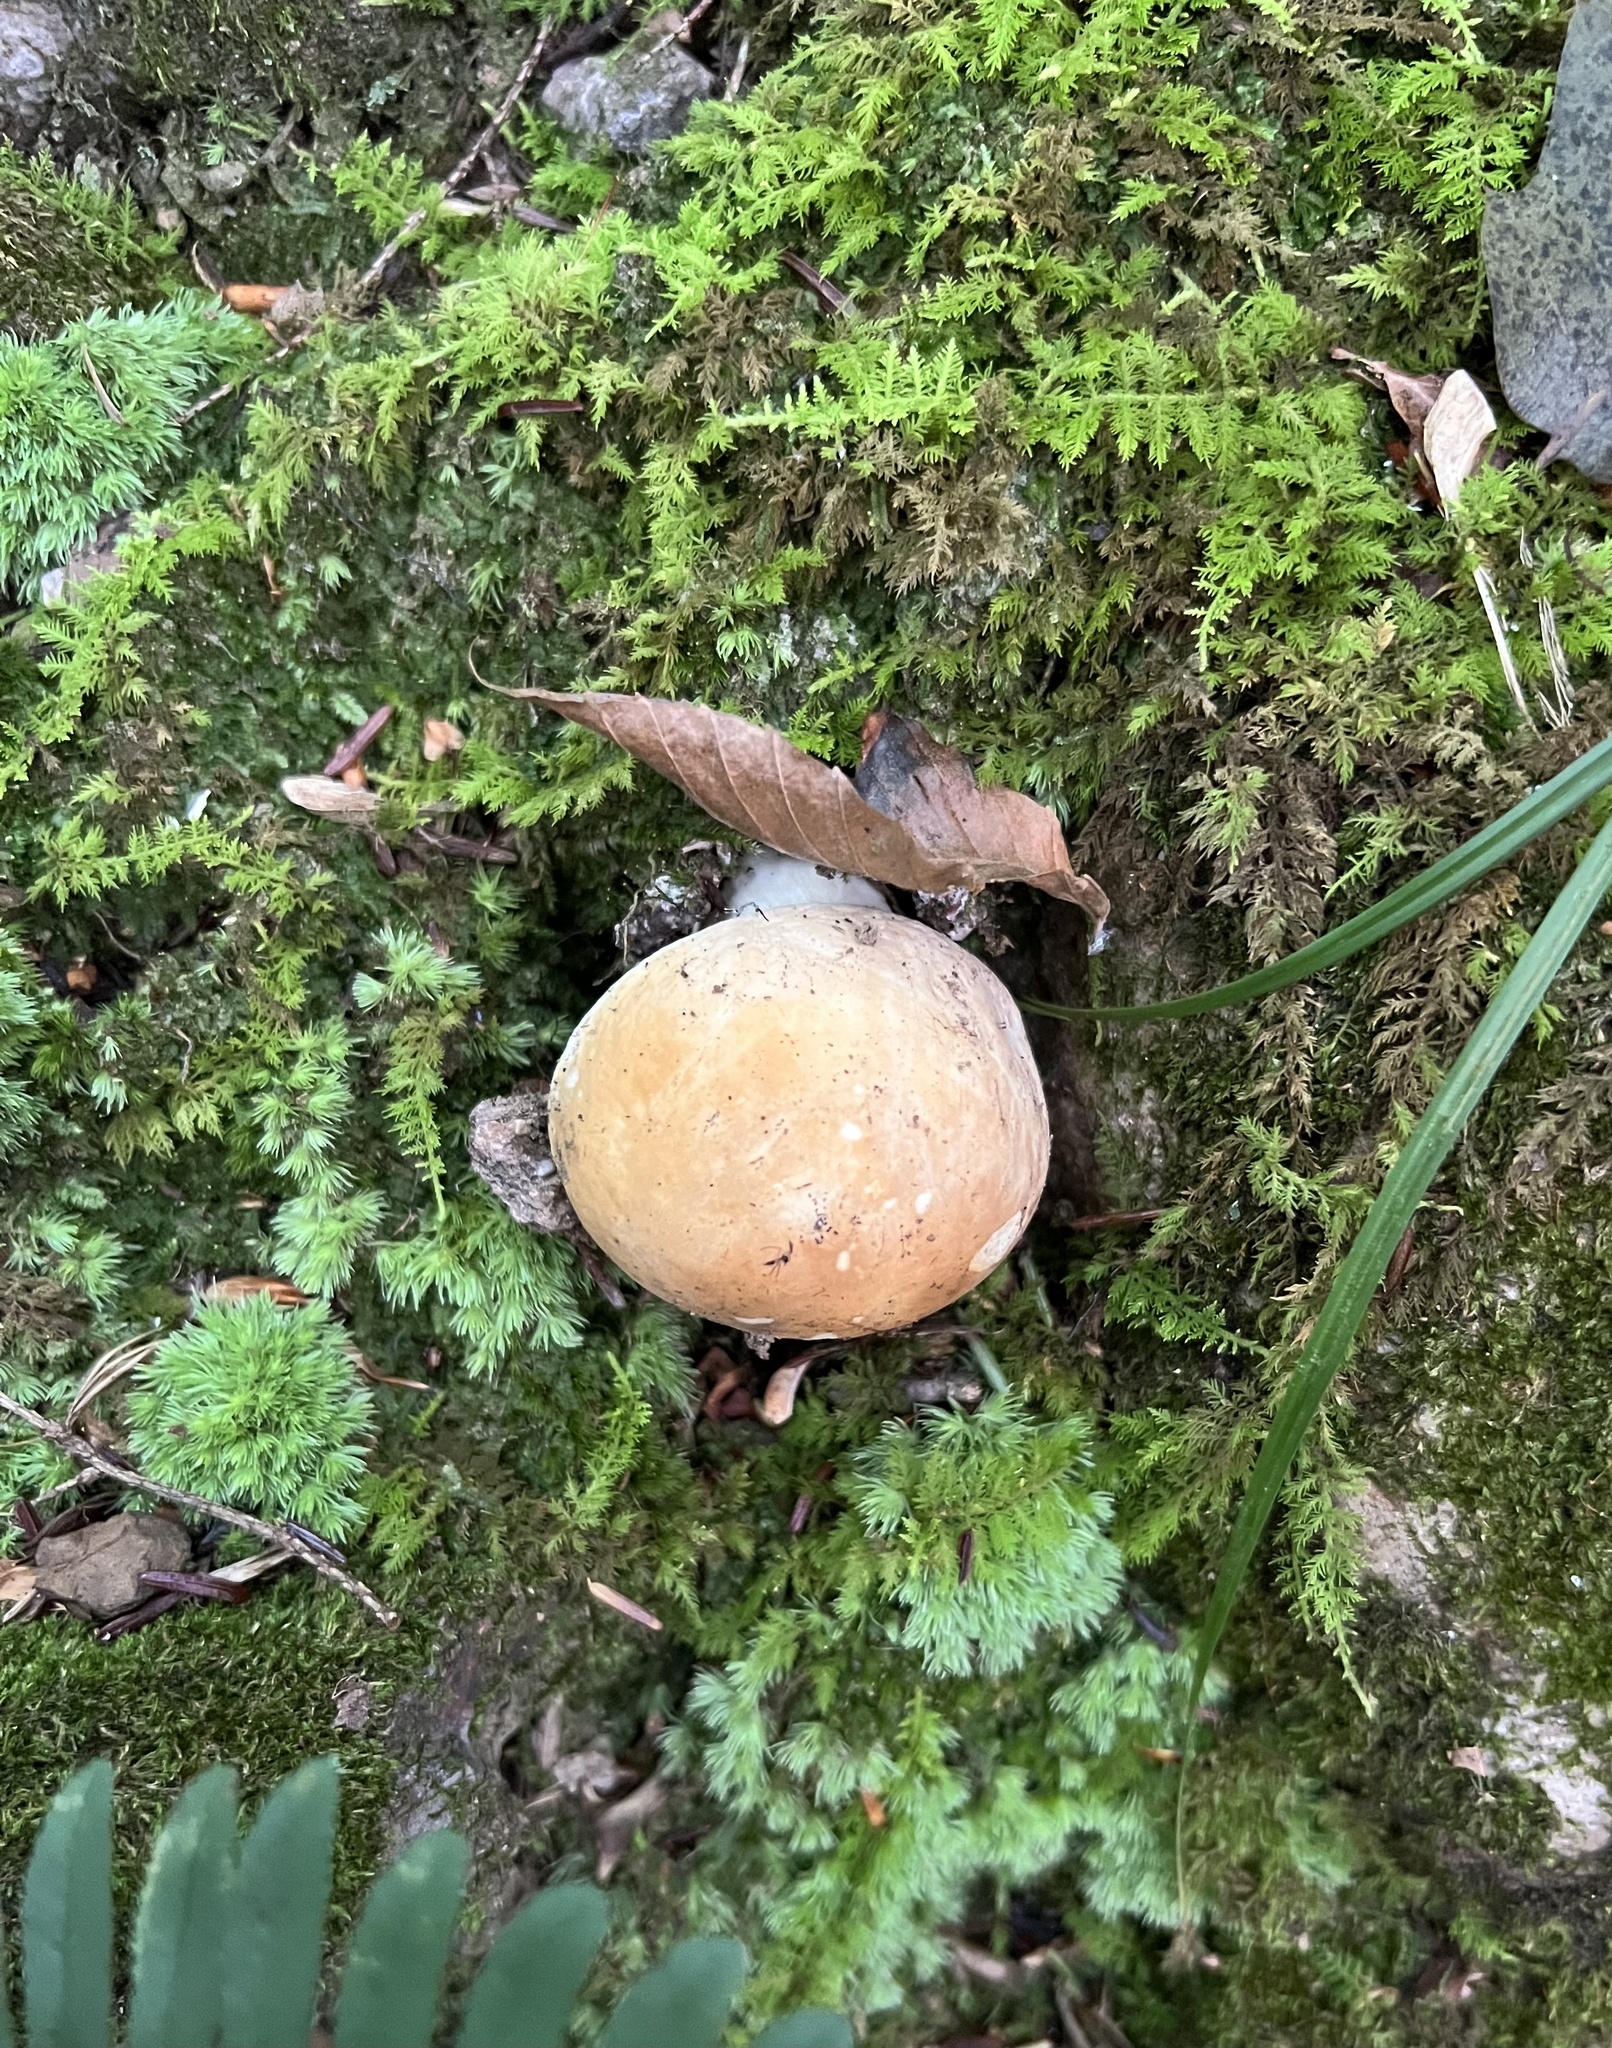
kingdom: Fungi
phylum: Basidiomycota
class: Agaricomycetes
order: Boletales
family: Boletaceae
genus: Boletus
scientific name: Boletus nobilis
